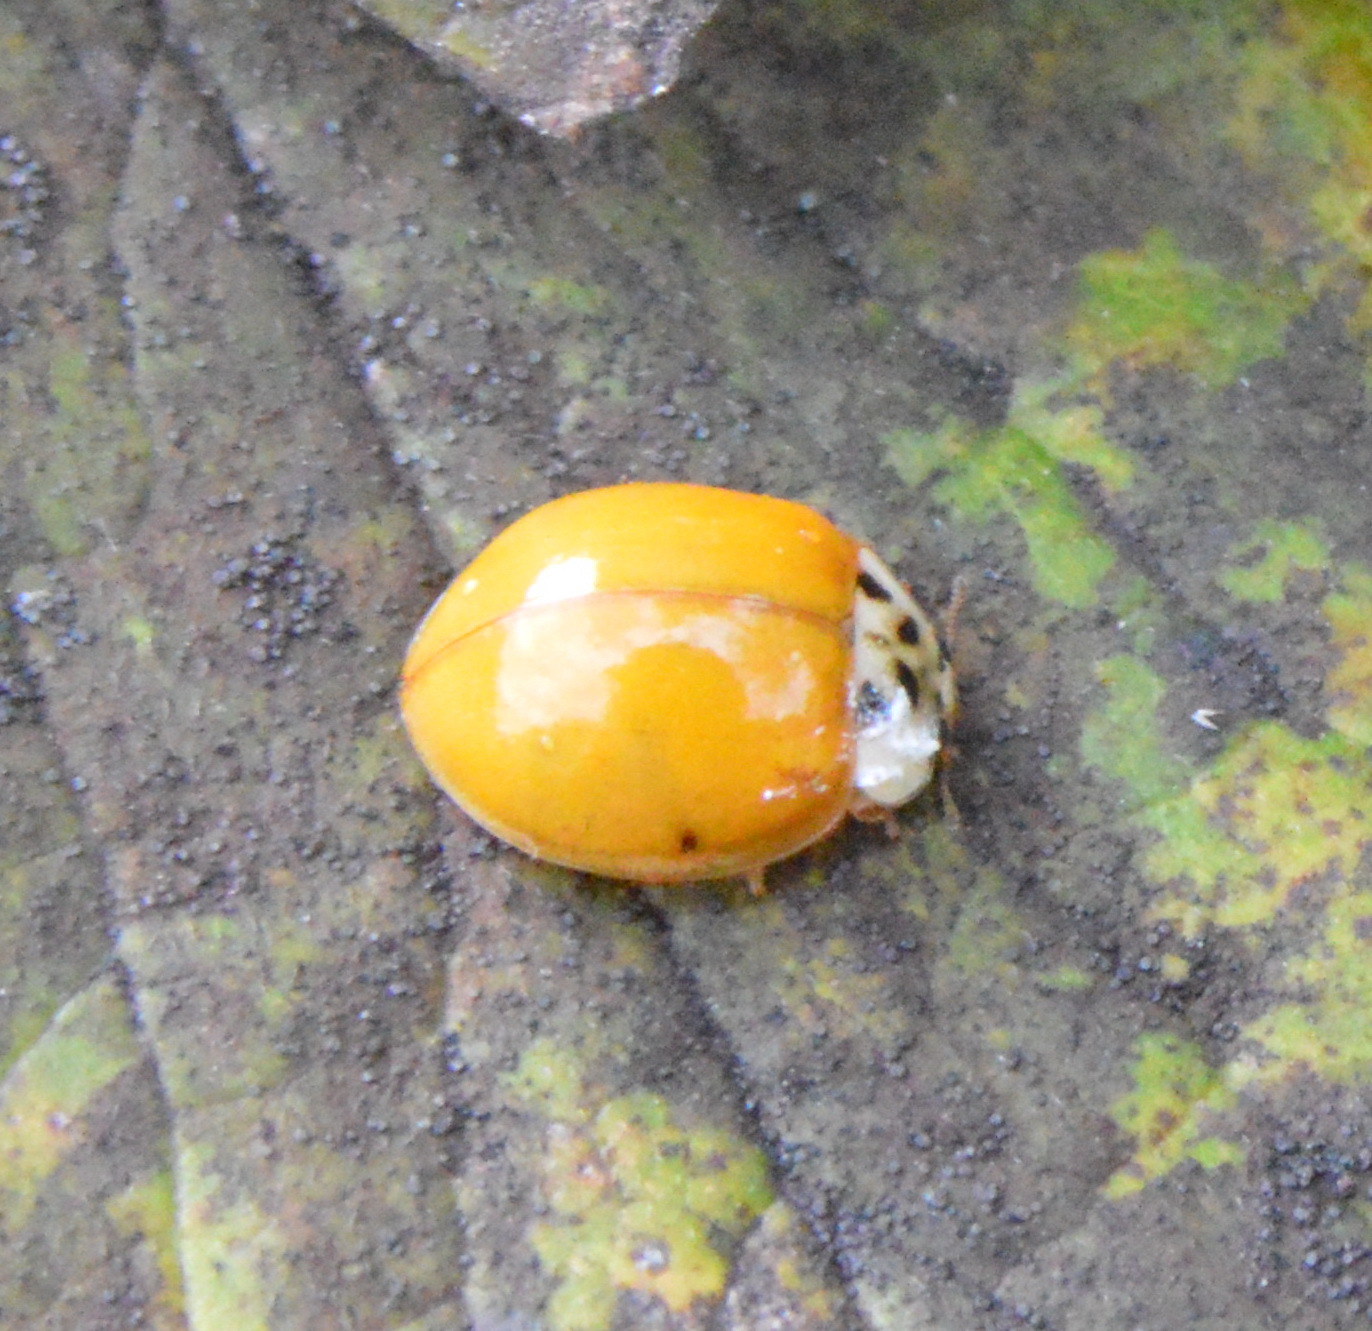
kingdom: Animalia
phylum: Arthropoda
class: Insecta
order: Coleoptera
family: Coccinellidae
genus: Harmonia
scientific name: Harmonia axyridis
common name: Harlequin ladybird
